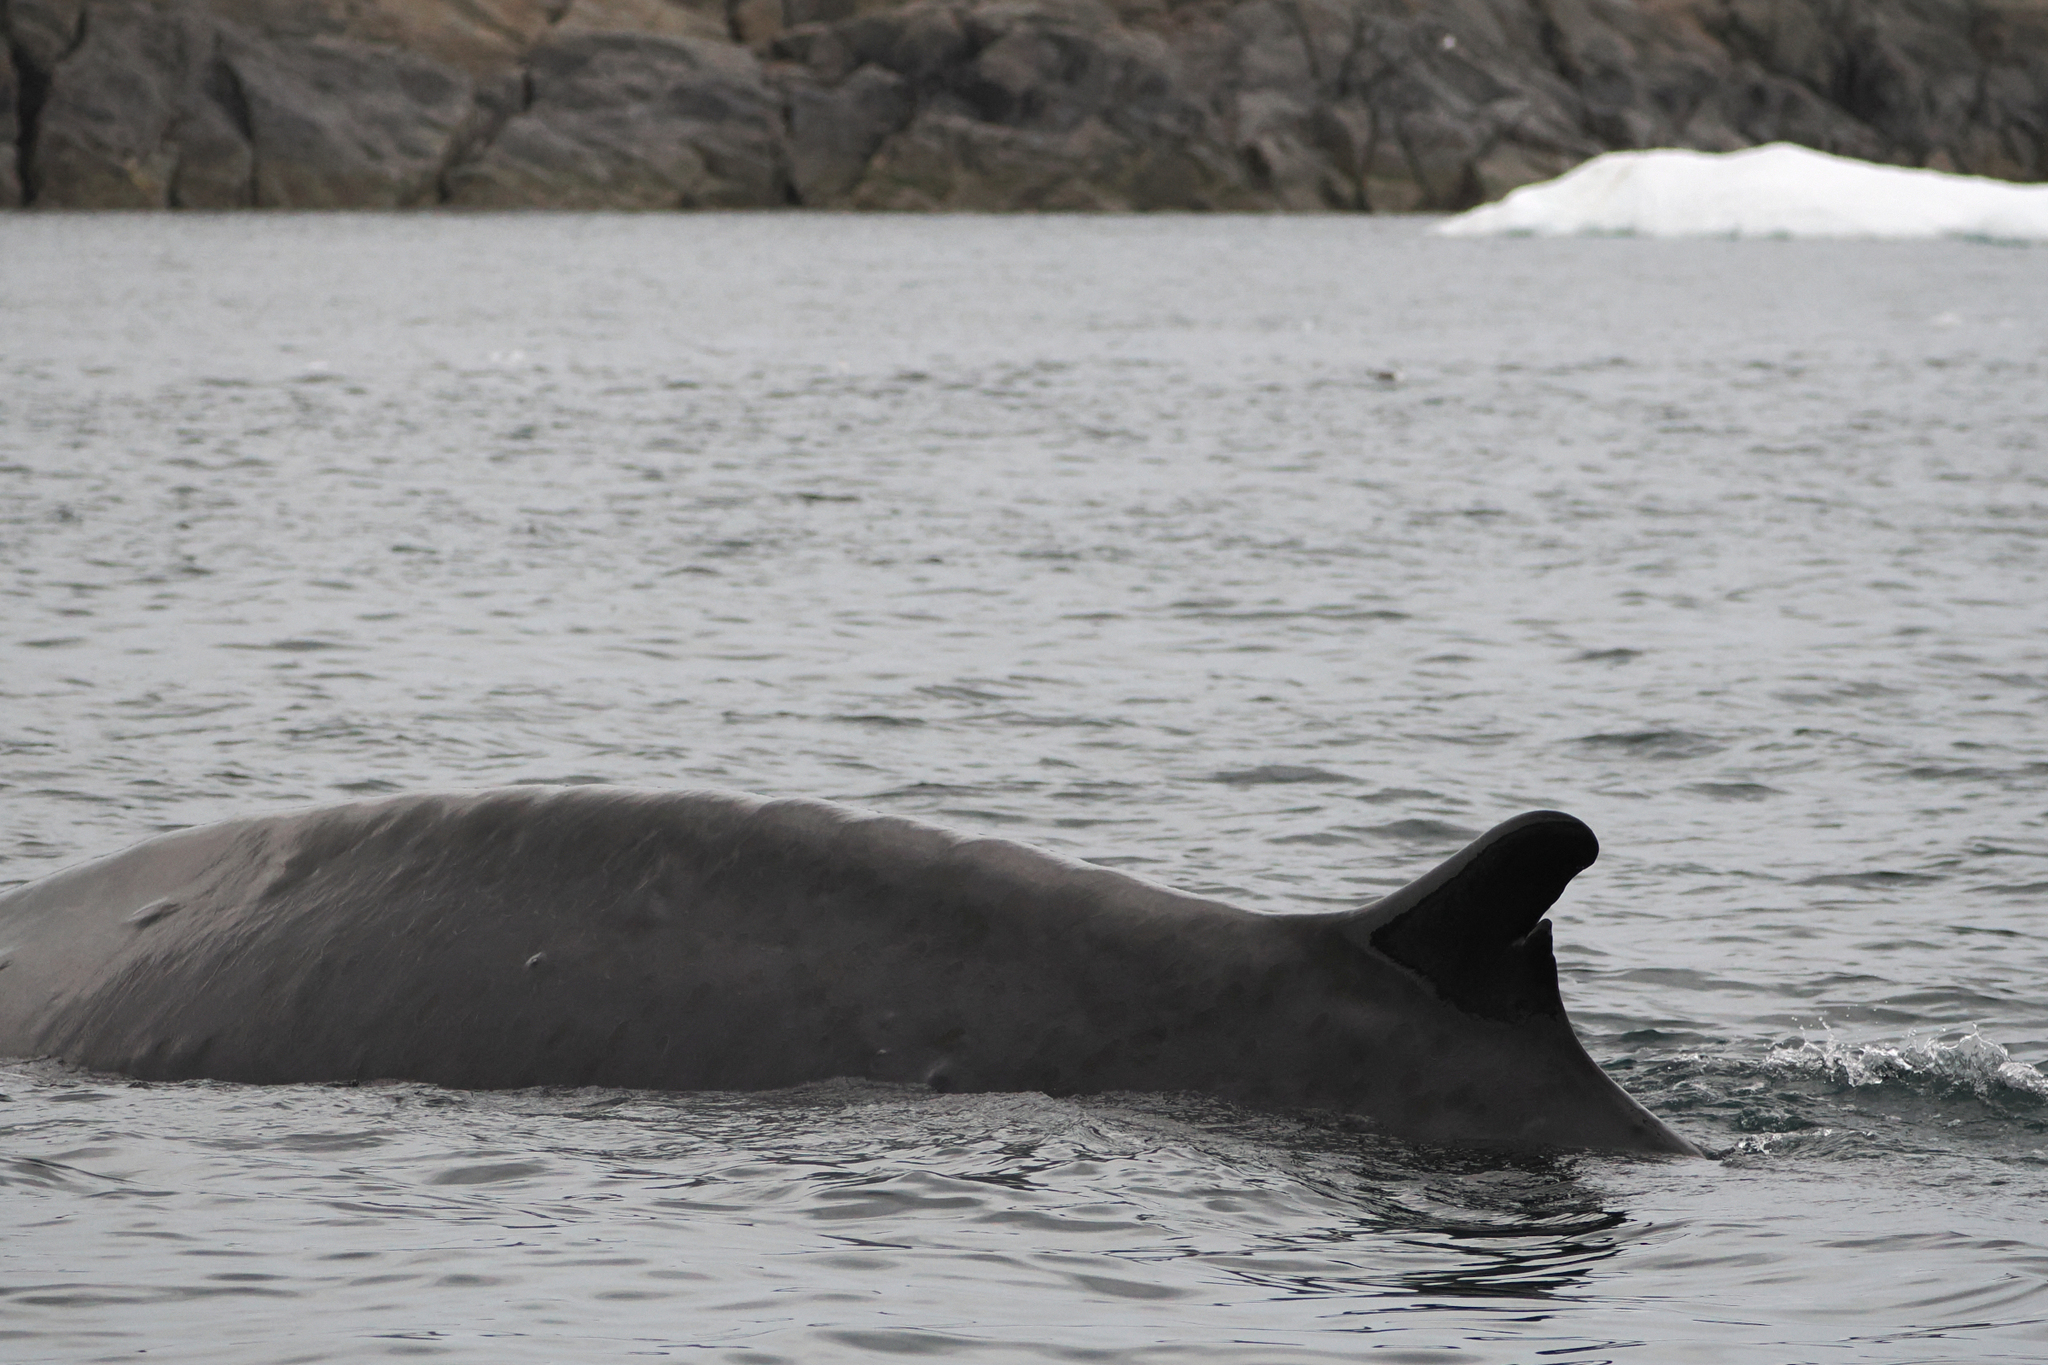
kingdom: Animalia
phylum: Chordata
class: Mammalia
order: Cetacea
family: Balaenopteridae
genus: Balaenoptera
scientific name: Balaenoptera physalus
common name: Fin whale
